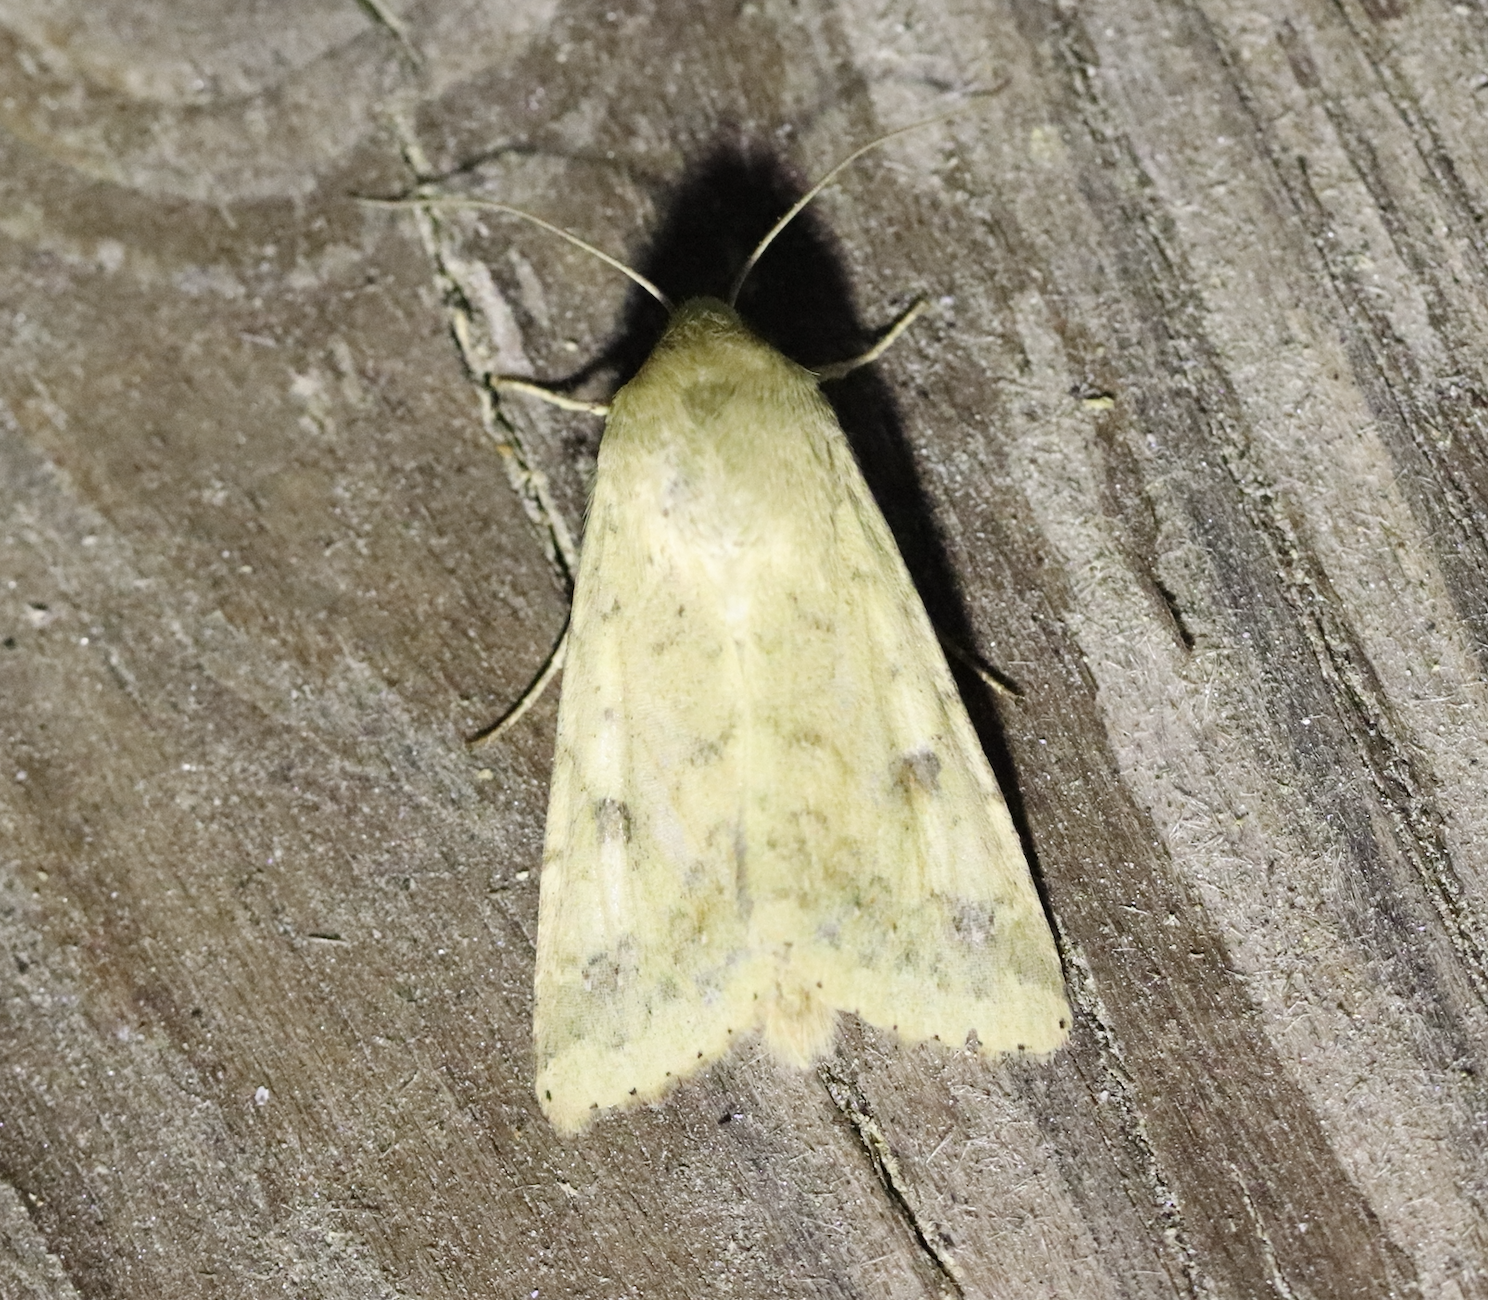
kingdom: Animalia
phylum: Arthropoda
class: Insecta
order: Lepidoptera
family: Noctuidae
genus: Helicoverpa
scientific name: Helicoverpa armigera
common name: Cotton bollworm
